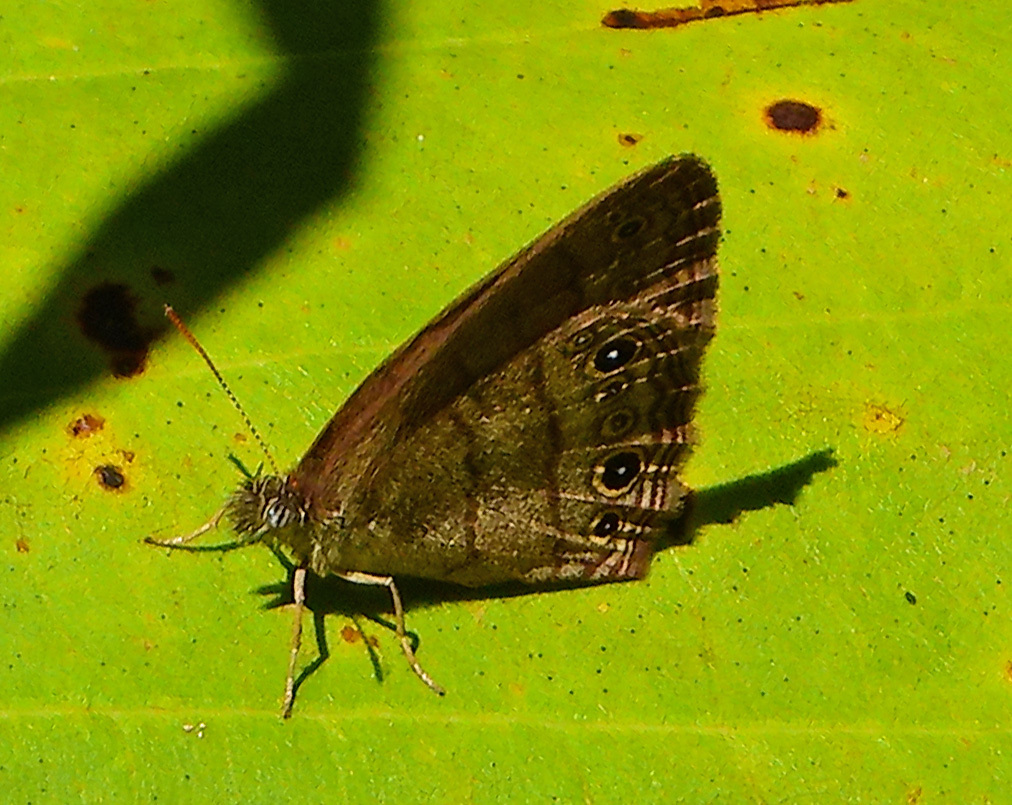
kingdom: Animalia
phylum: Arthropoda
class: Insecta
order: Lepidoptera
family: Nymphalidae
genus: Hermeuptychia
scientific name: Hermeuptychia hermes
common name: Hermes satyr
